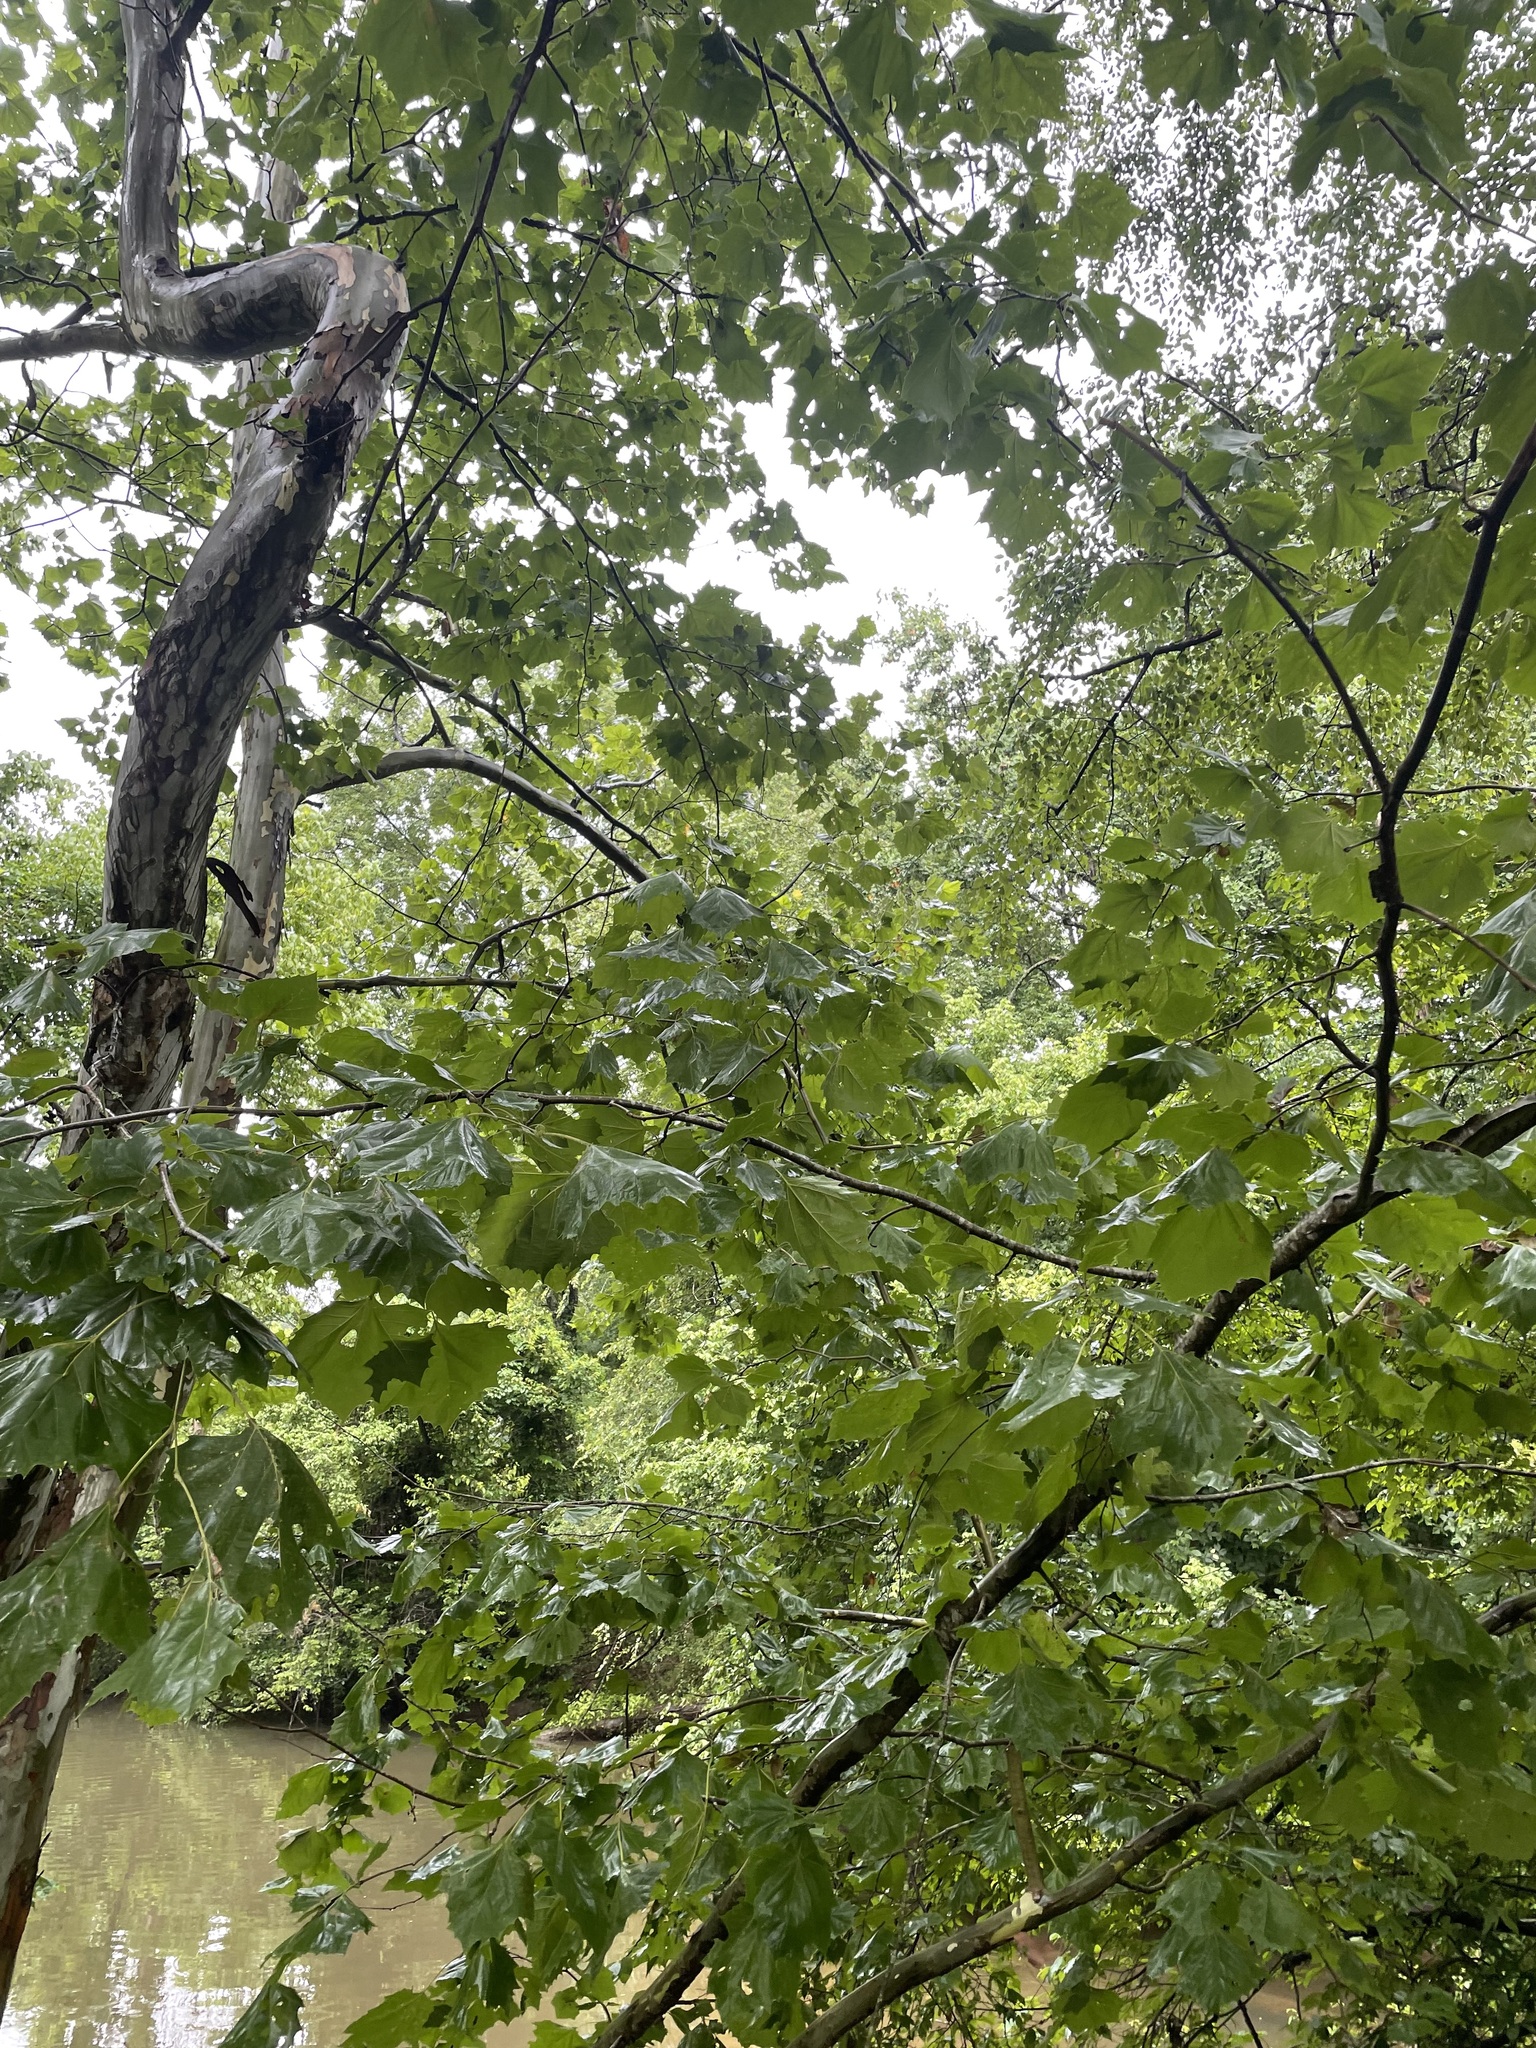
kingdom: Plantae
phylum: Tracheophyta
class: Magnoliopsida
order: Proteales
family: Platanaceae
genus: Platanus
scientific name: Platanus occidentalis
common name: American sycamore
